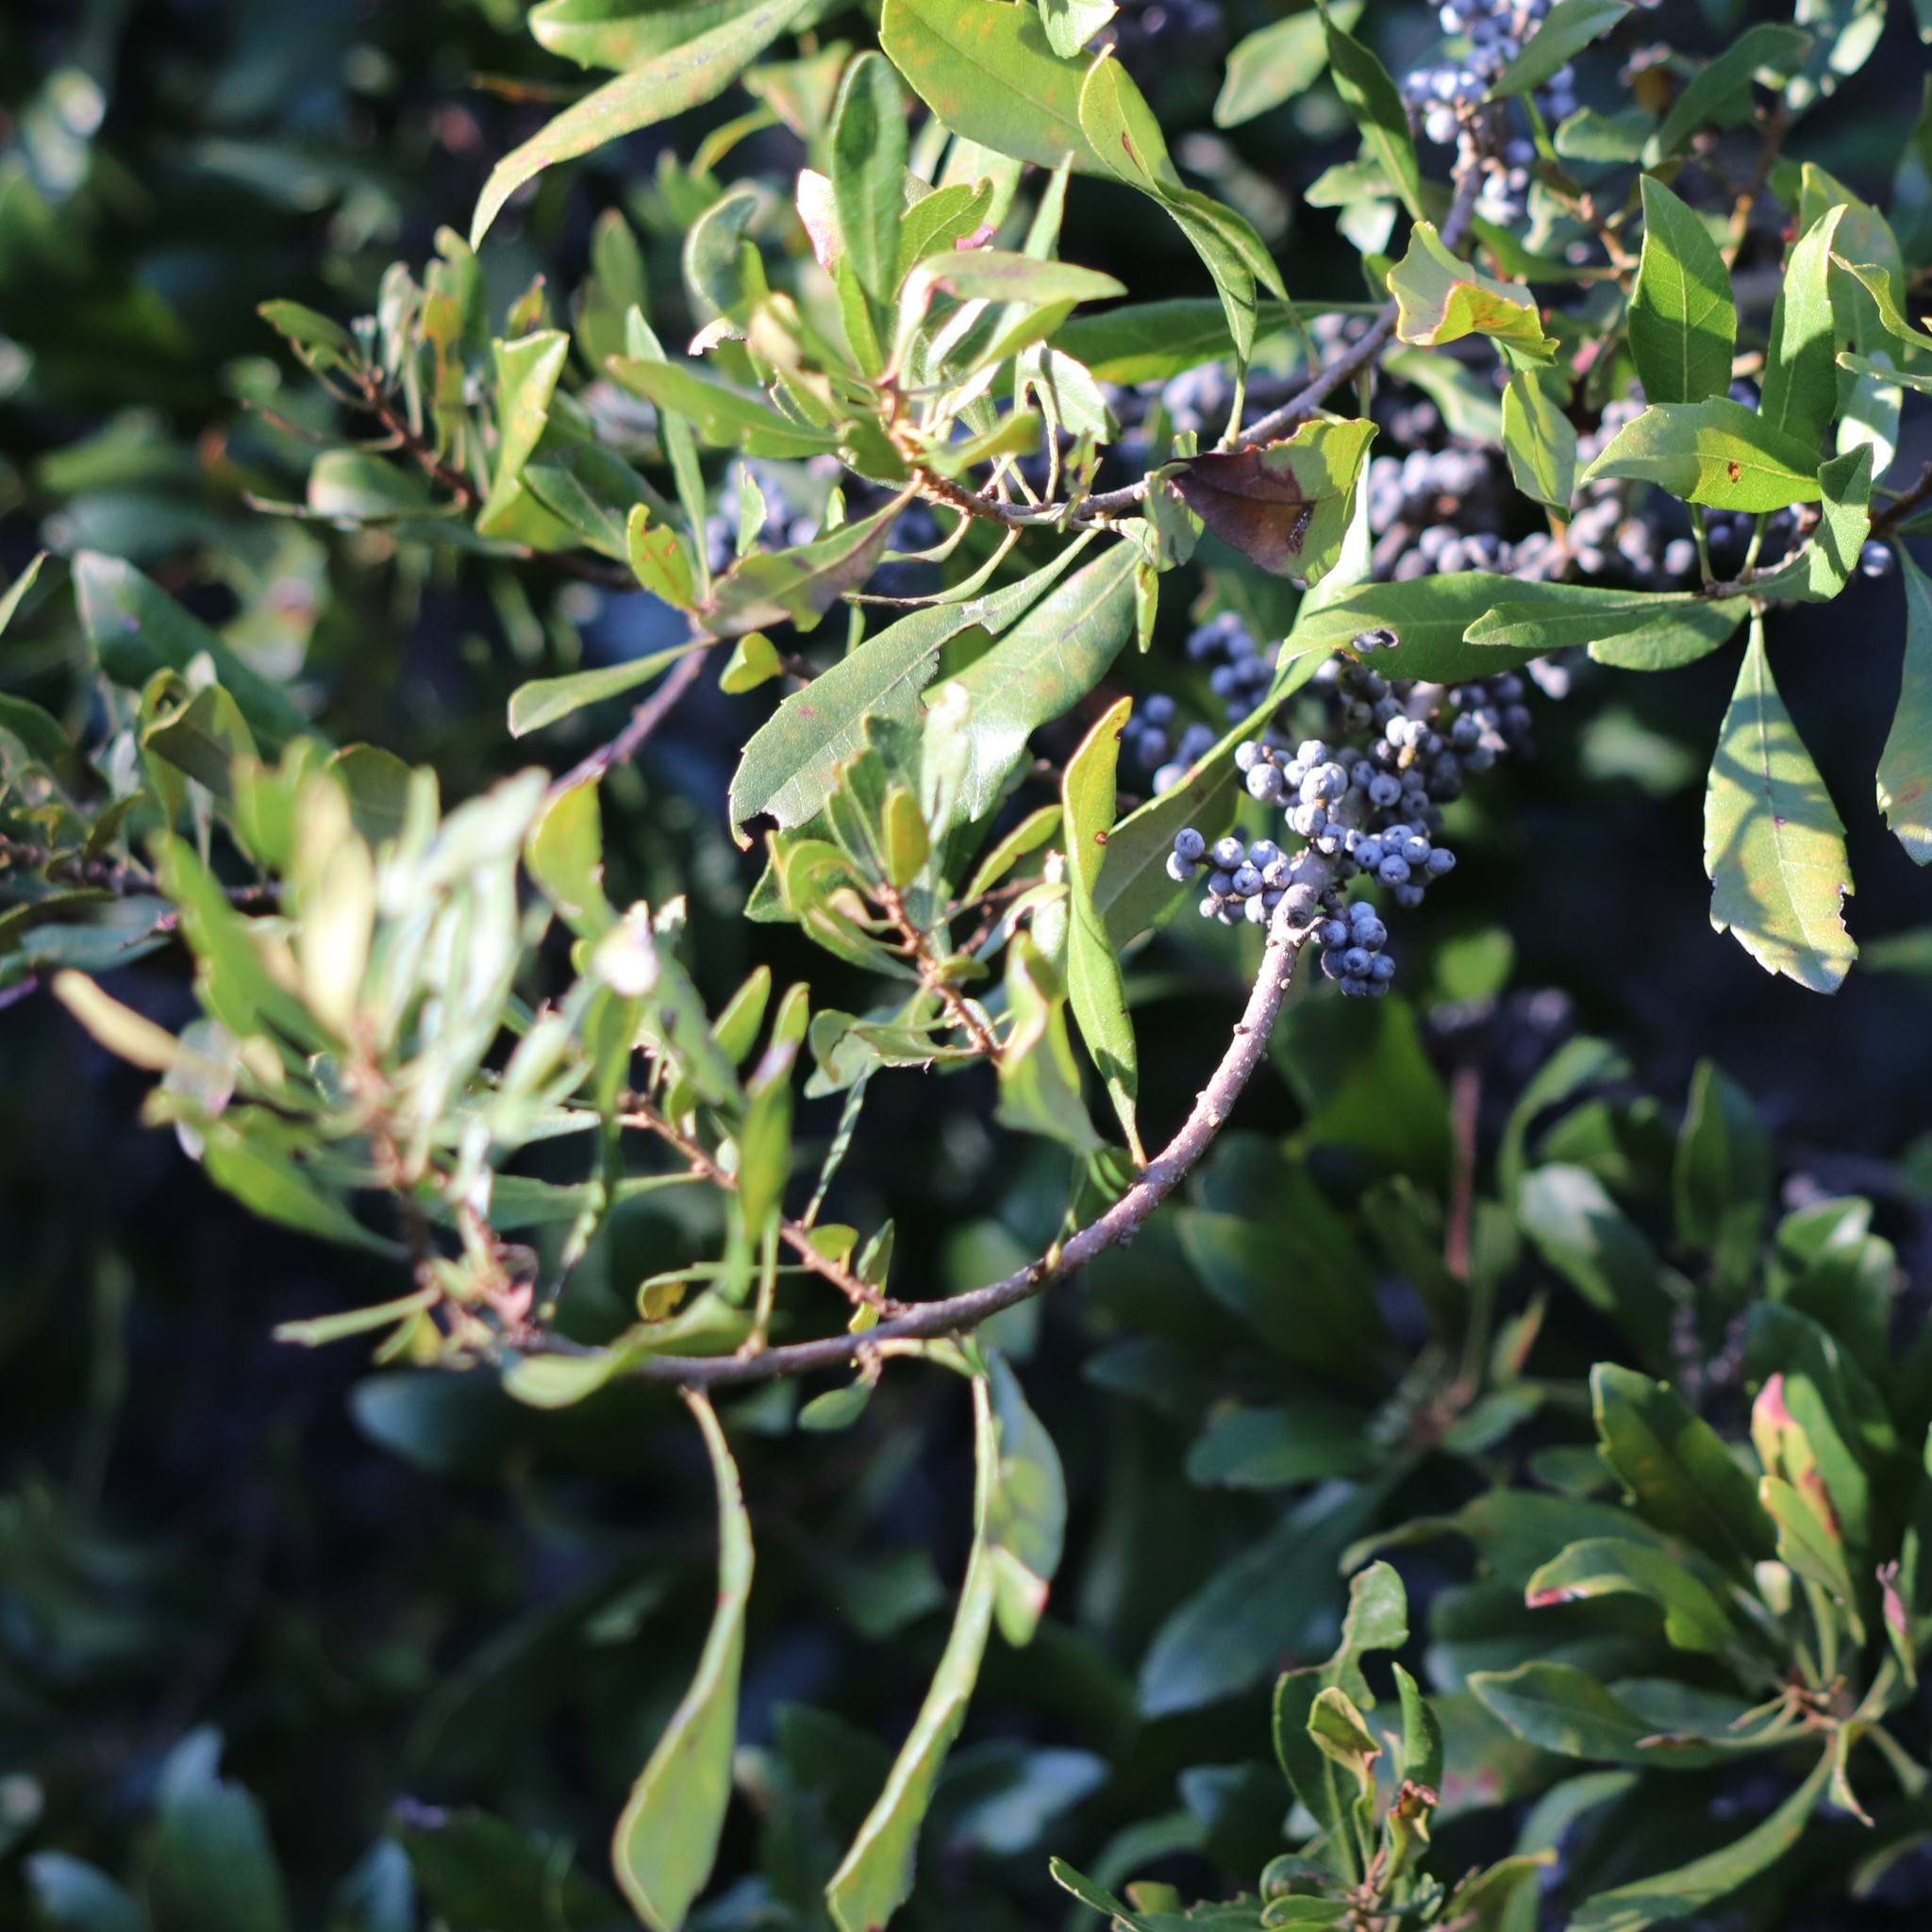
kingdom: Plantae
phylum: Tracheophyta
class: Magnoliopsida
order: Fagales
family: Myricaceae
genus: Morella
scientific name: Morella cerifera
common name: Wax myrtle
